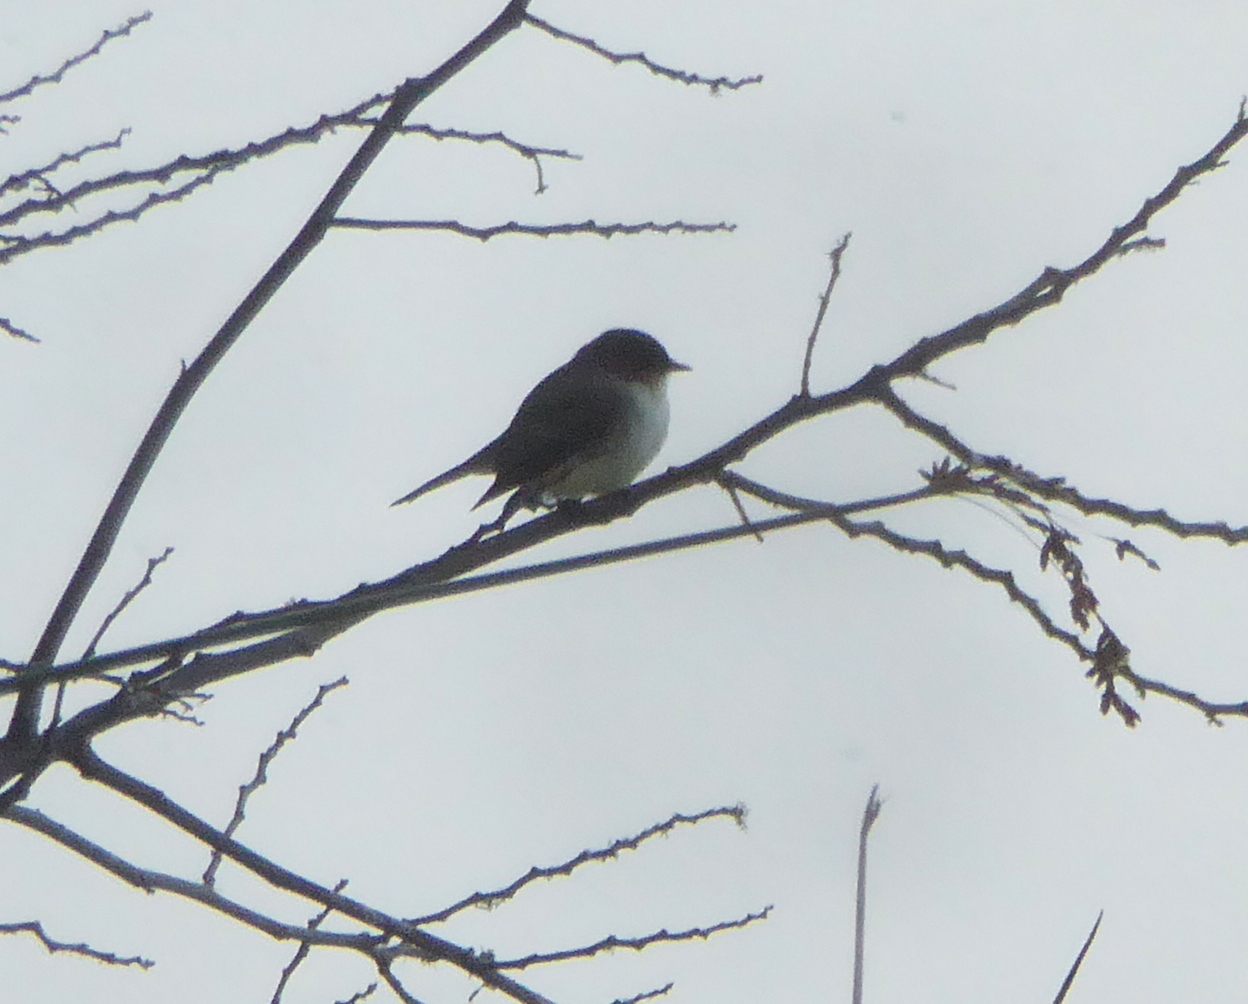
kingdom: Animalia
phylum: Chordata
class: Aves
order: Passeriformes
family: Tyrannidae
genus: Sayornis
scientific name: Sayornis phoebe
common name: Eastern phoebe
